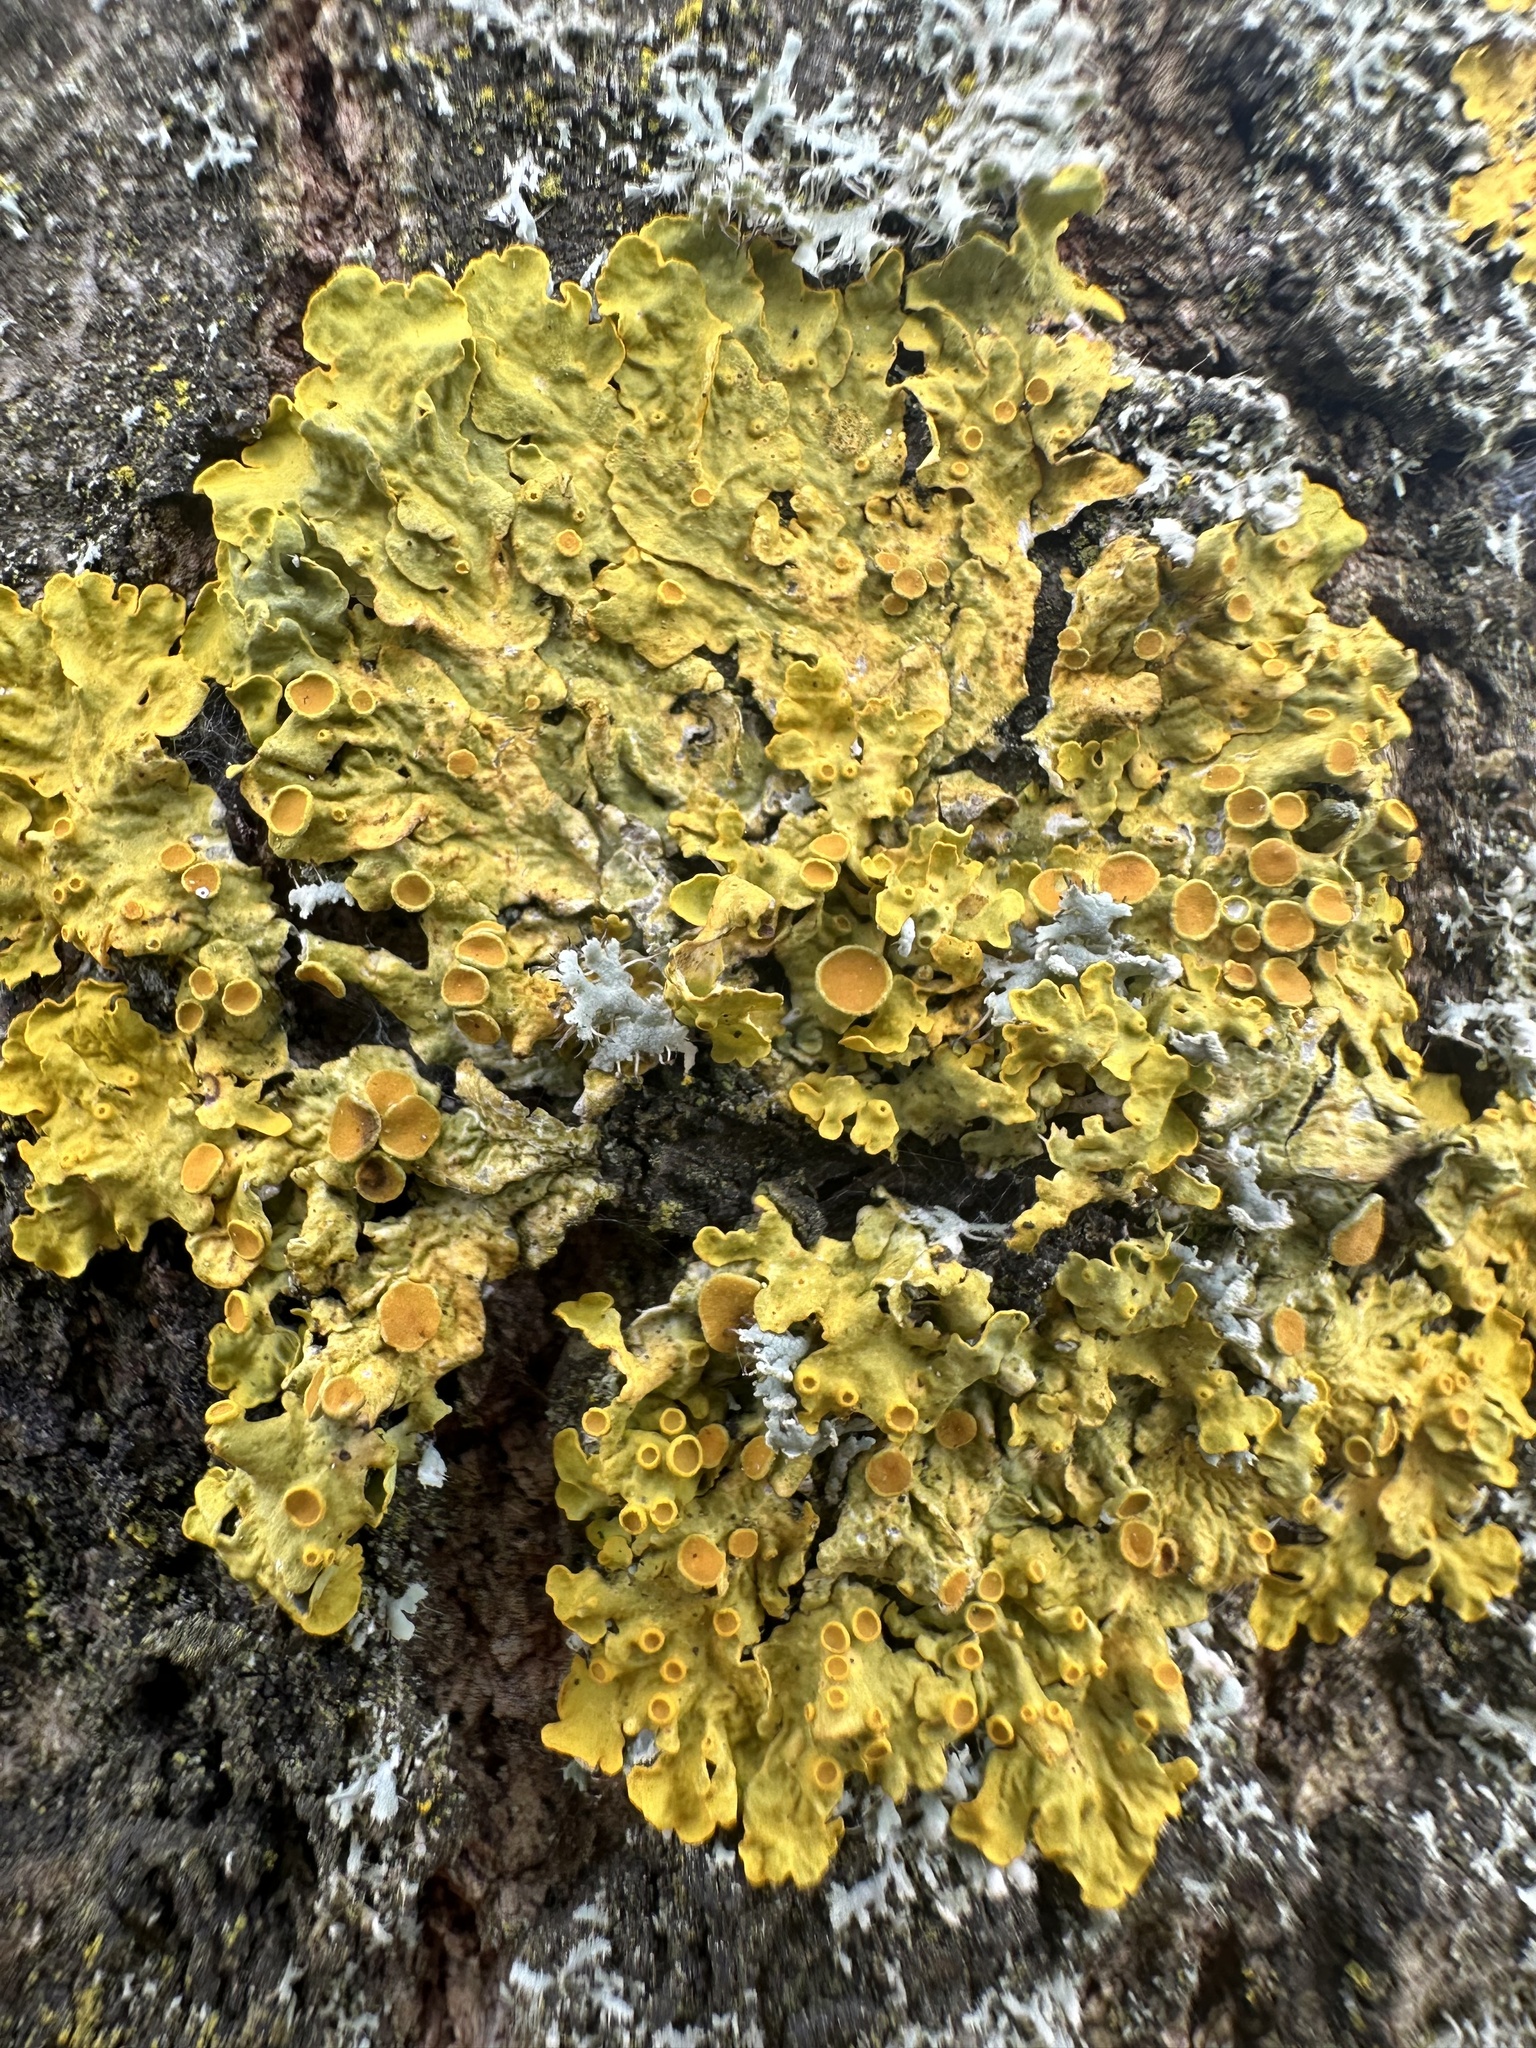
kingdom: Fungi
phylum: Ascomycota
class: Lecanoromycetes
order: Teloschistales
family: Teloschistaceae
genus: Xanthoria
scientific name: Xanthoria parietina
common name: Common orange lichen
